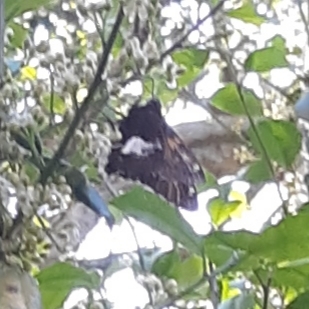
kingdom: Animalia
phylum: Arthropoda
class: Insecta
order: Lepidoptera
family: Hesperiidae
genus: Epargyreus
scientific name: Epargyreus clarus
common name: Silver-spotted skipper
